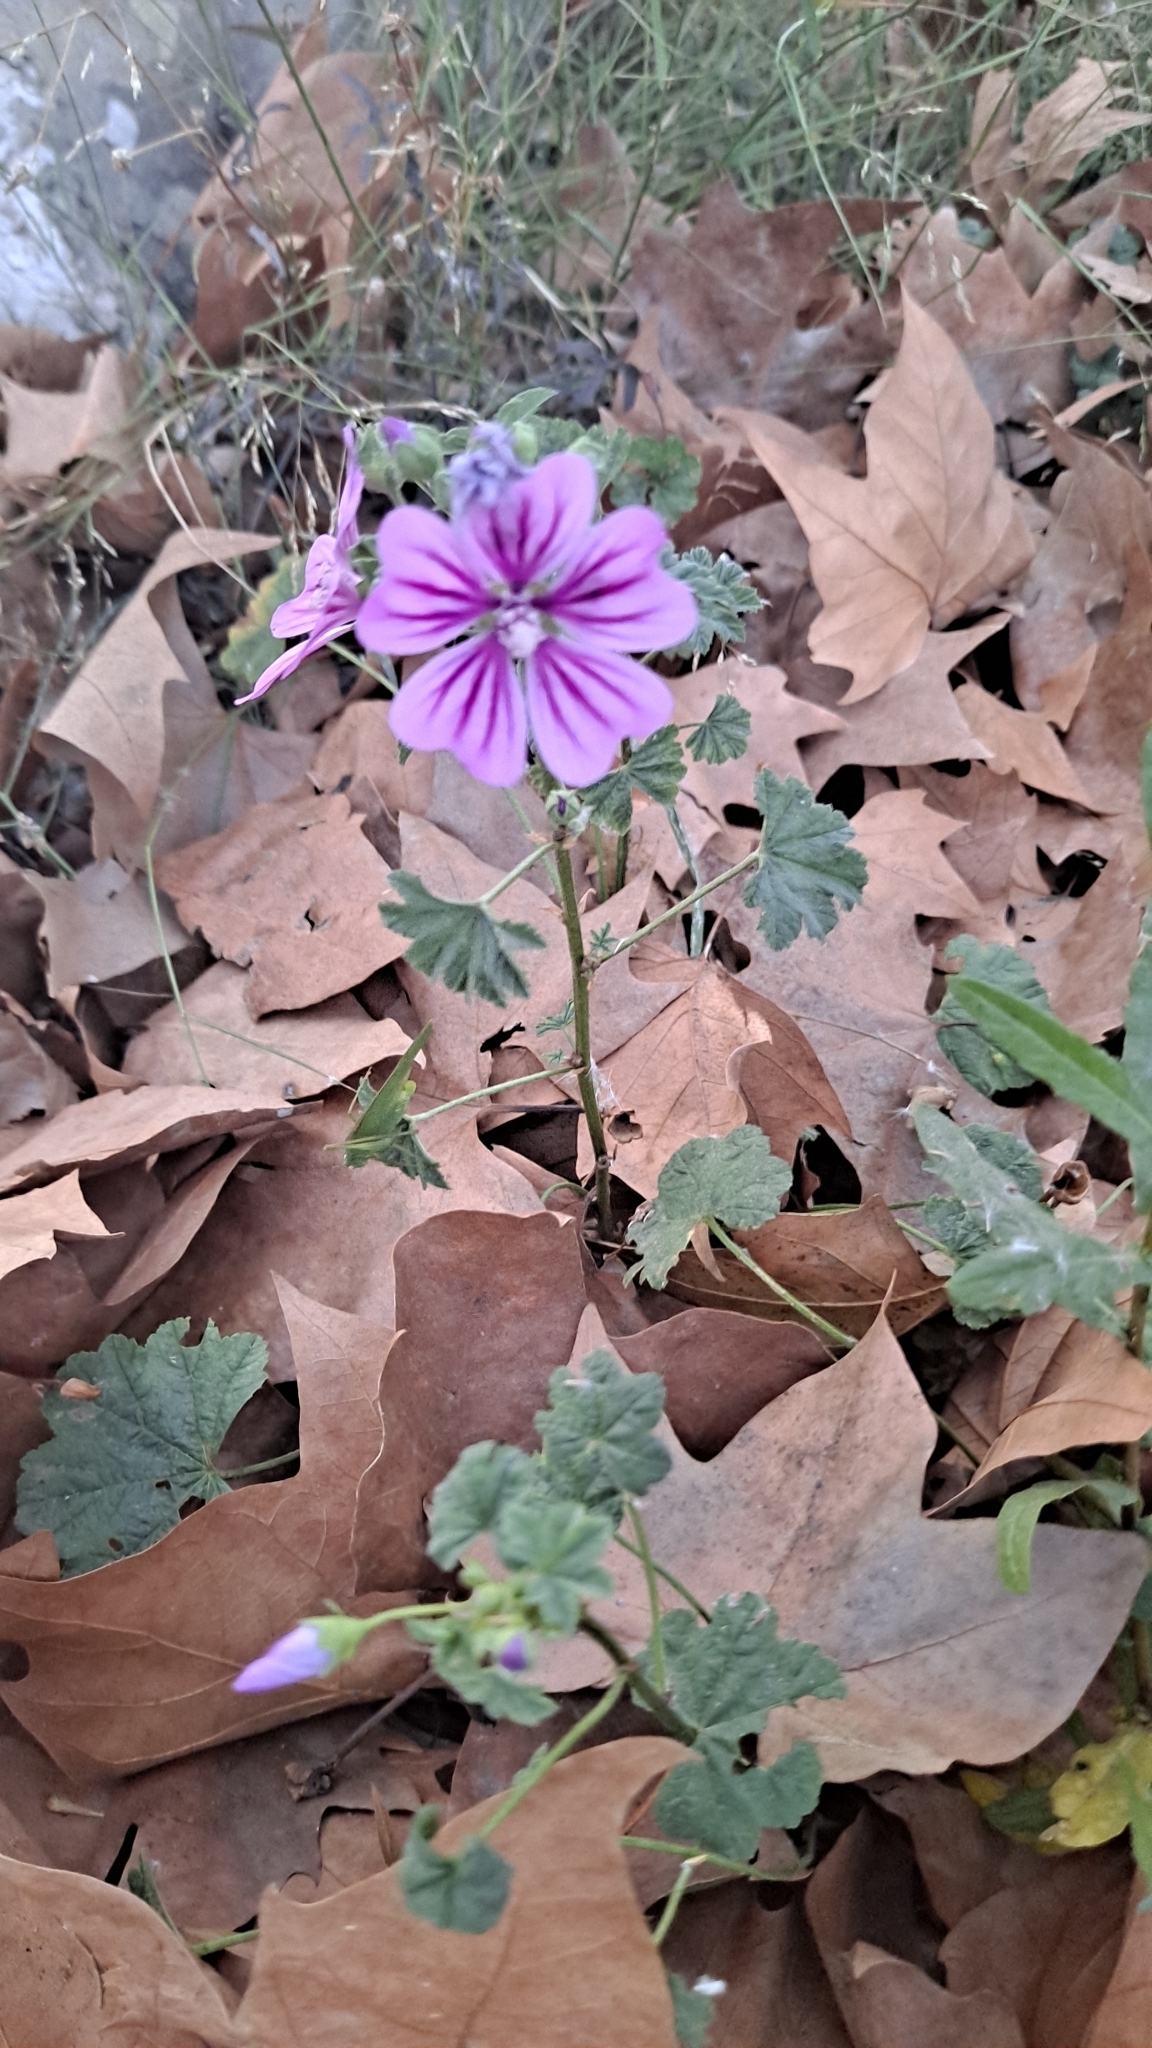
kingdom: Plantae
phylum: Tracheophyta
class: Magnoliopsida
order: Malvales
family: Malvaceae
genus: Malva
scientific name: Malva sylvestris
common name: Common mallow
